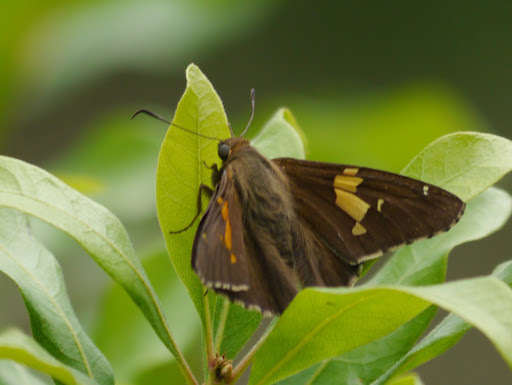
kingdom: Animalia
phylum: Arthropoda
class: Insecta
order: Lepidoptera
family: Hesperiidae
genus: Epargyreus
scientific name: Epargyreus clarus
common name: Silver-spotted skipper
